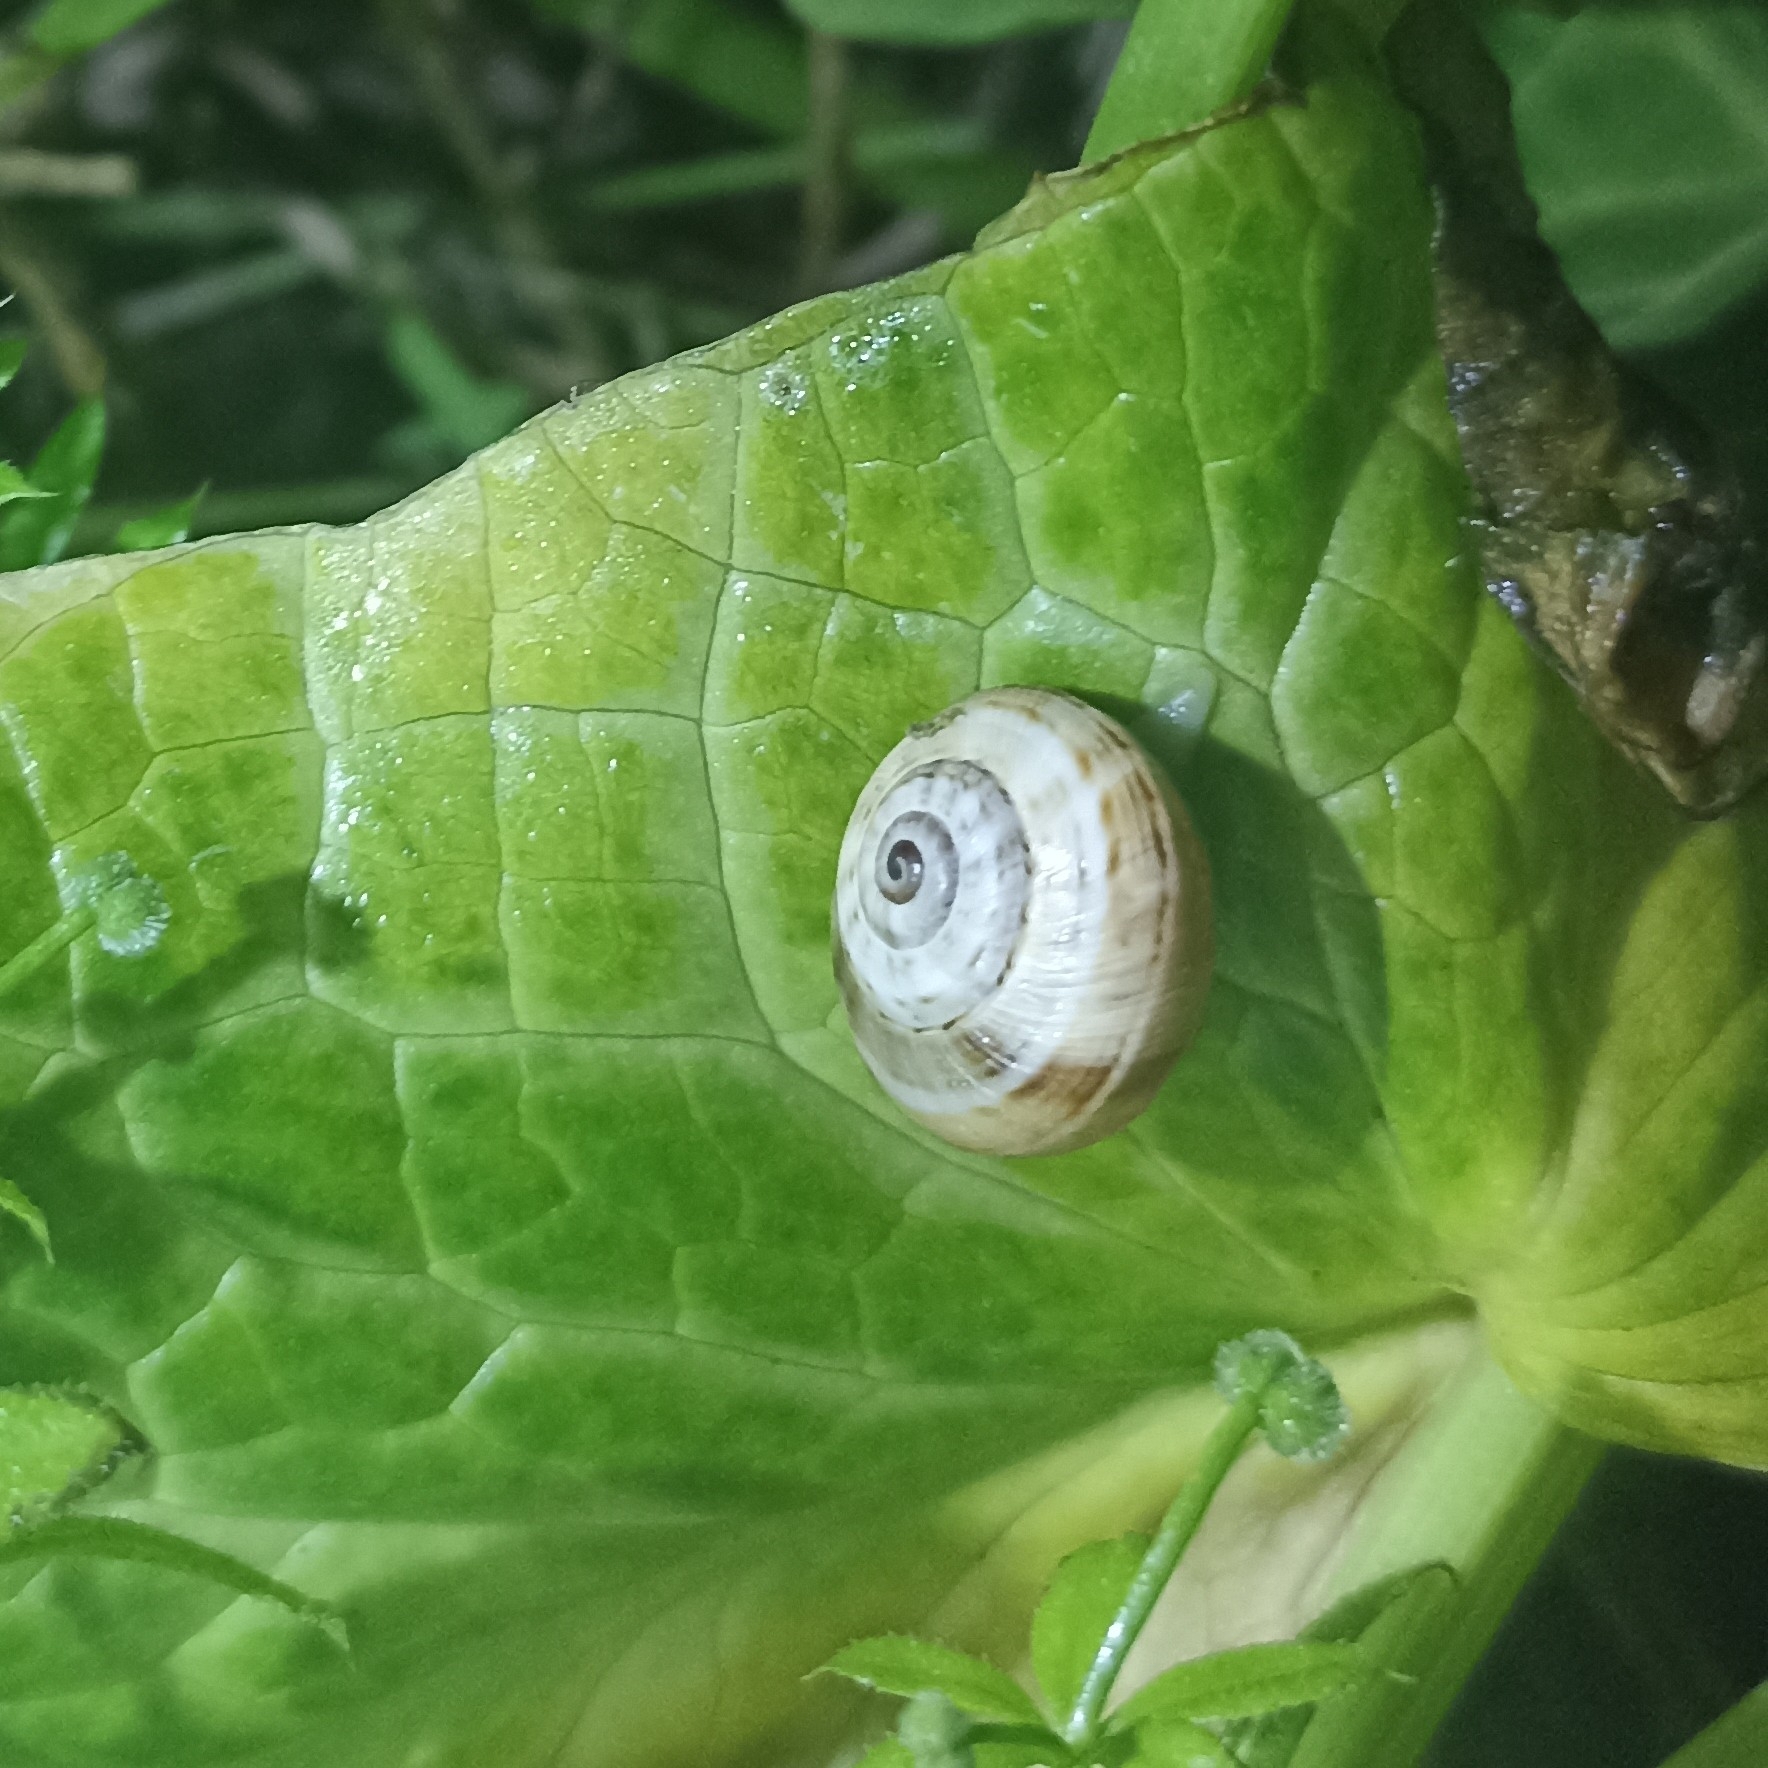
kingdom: Animalia
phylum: Mollusca
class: Gastropoda
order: Stylommatophora
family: Helicidae
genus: Theba
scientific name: Theba pisana
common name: White snail
